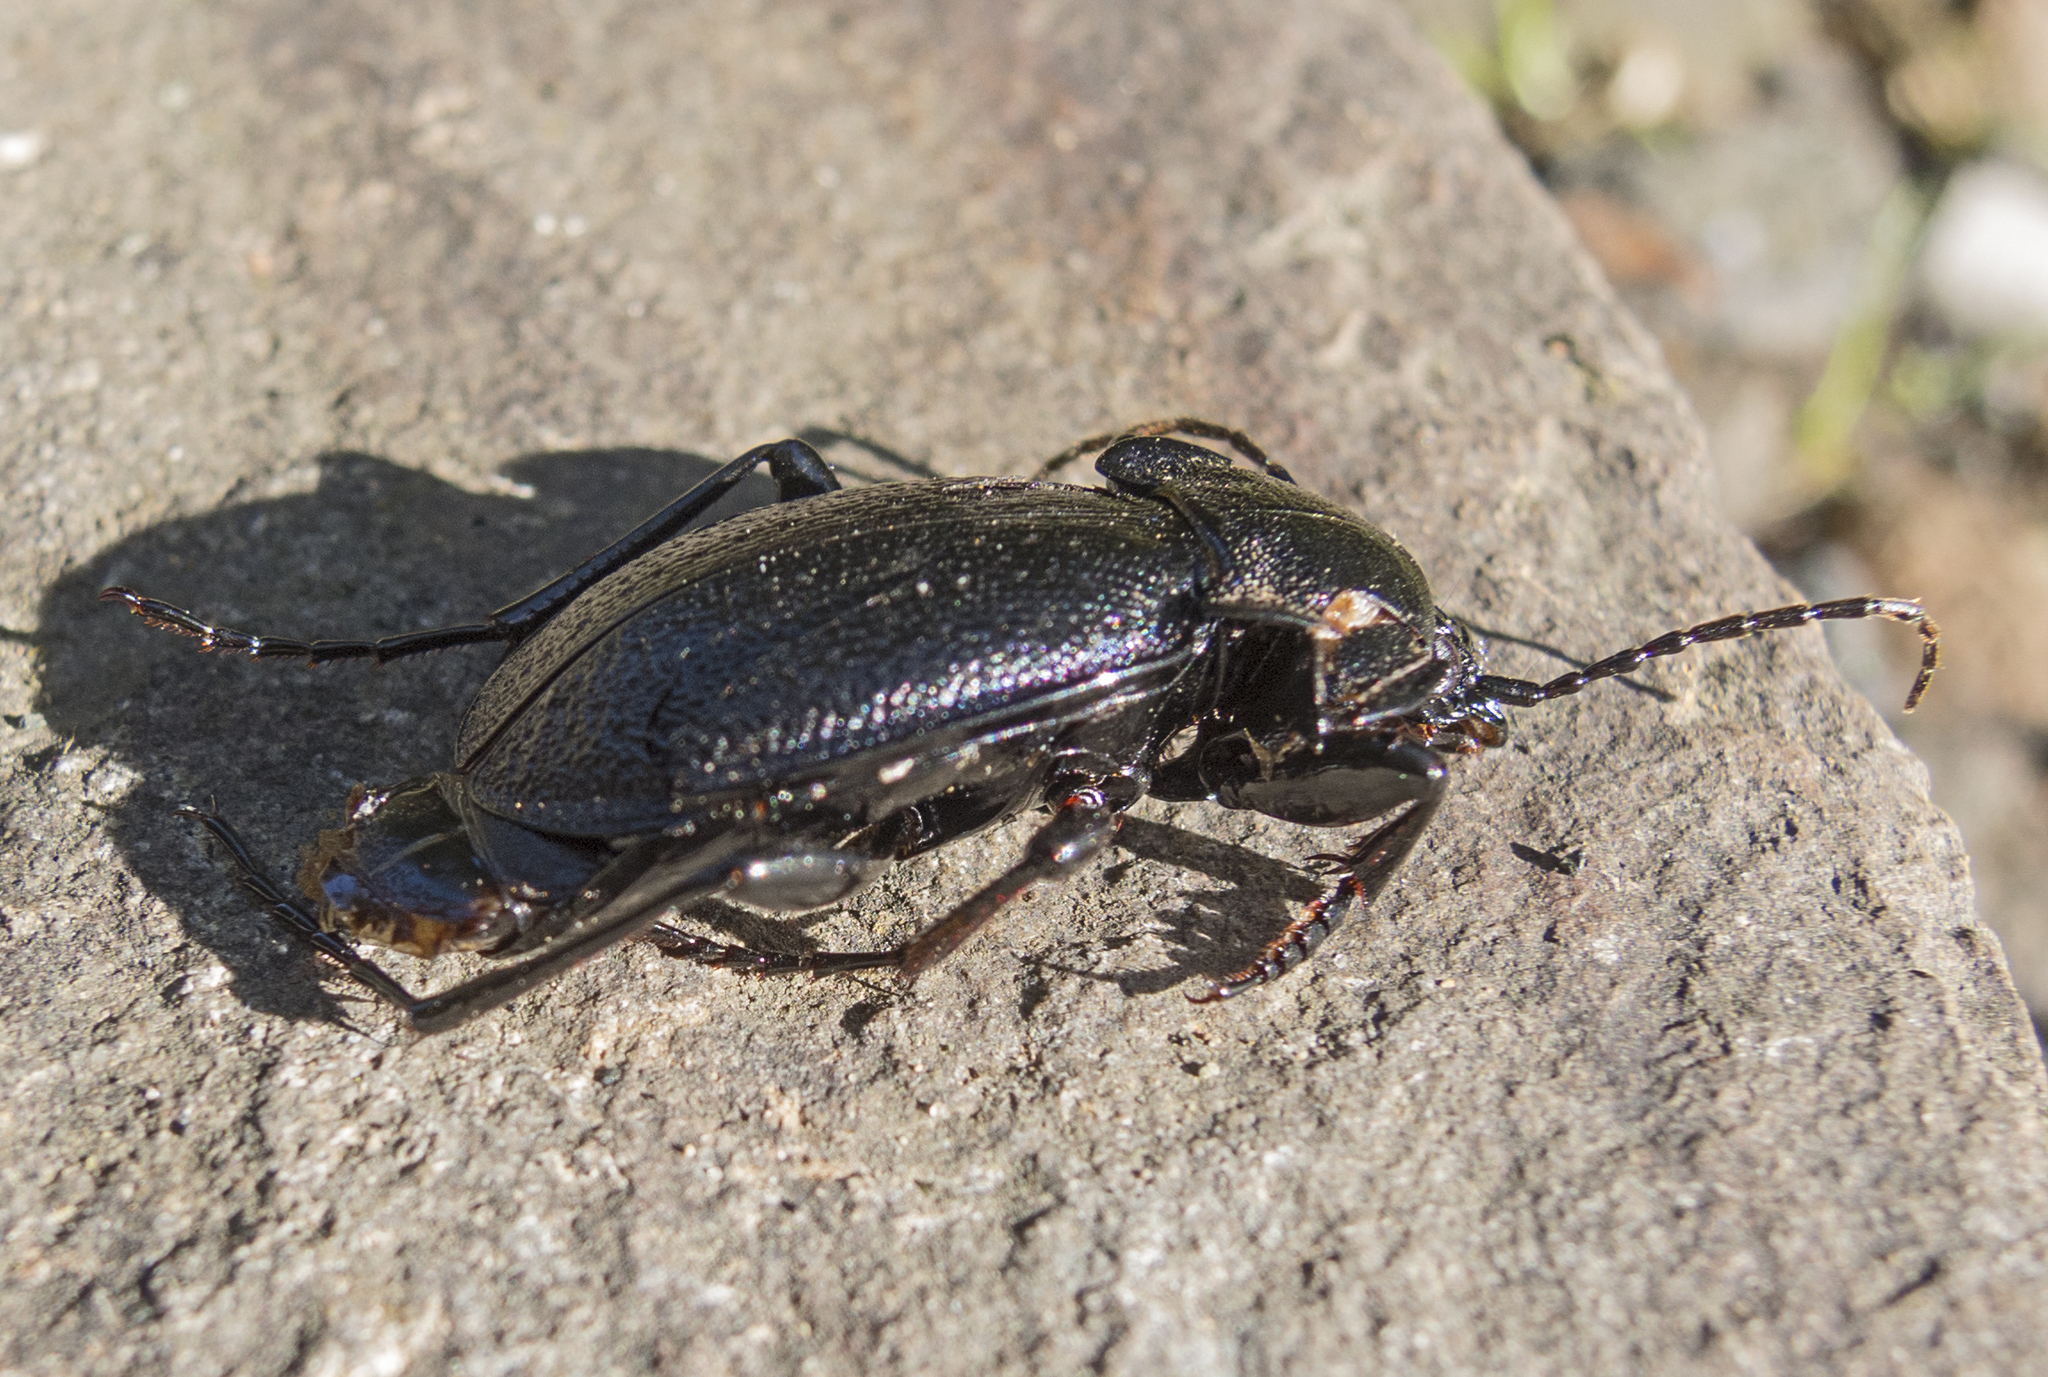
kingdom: Animalia
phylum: Arthropoda
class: Insecta
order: Coleoptera
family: Carabidae
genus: Carabus
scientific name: Carabus wiedemanni
